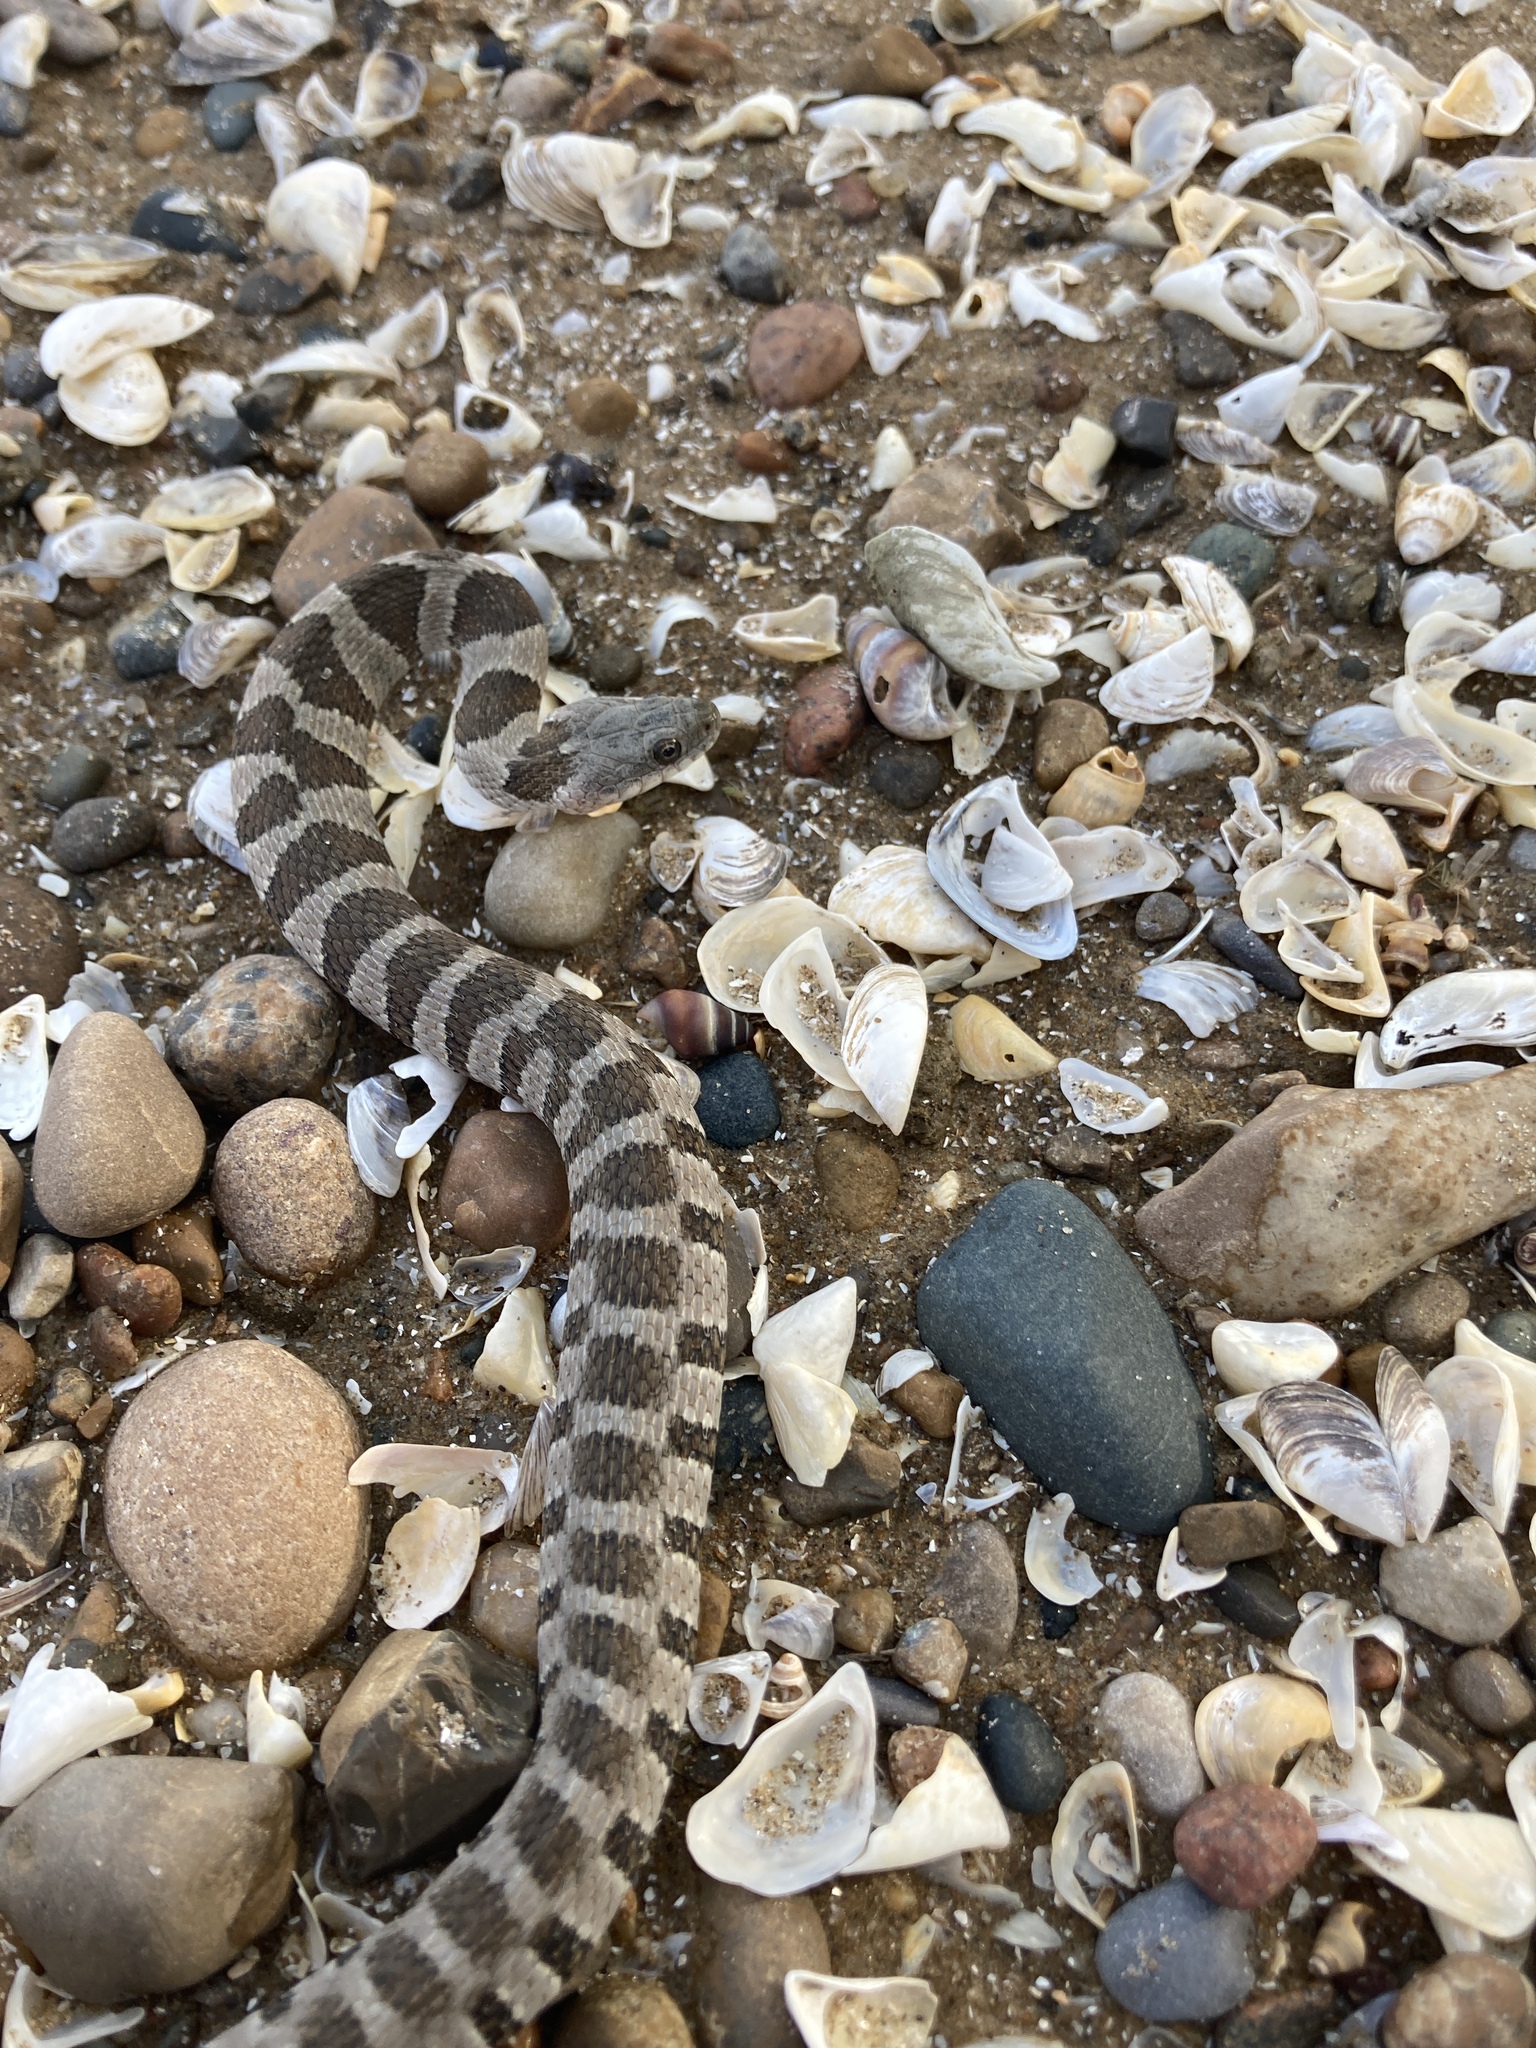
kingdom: Animalia
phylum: Chordata
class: Squamata
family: Colubridae
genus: Nerodia
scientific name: Nerodia sipedon
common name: Northern water snake
